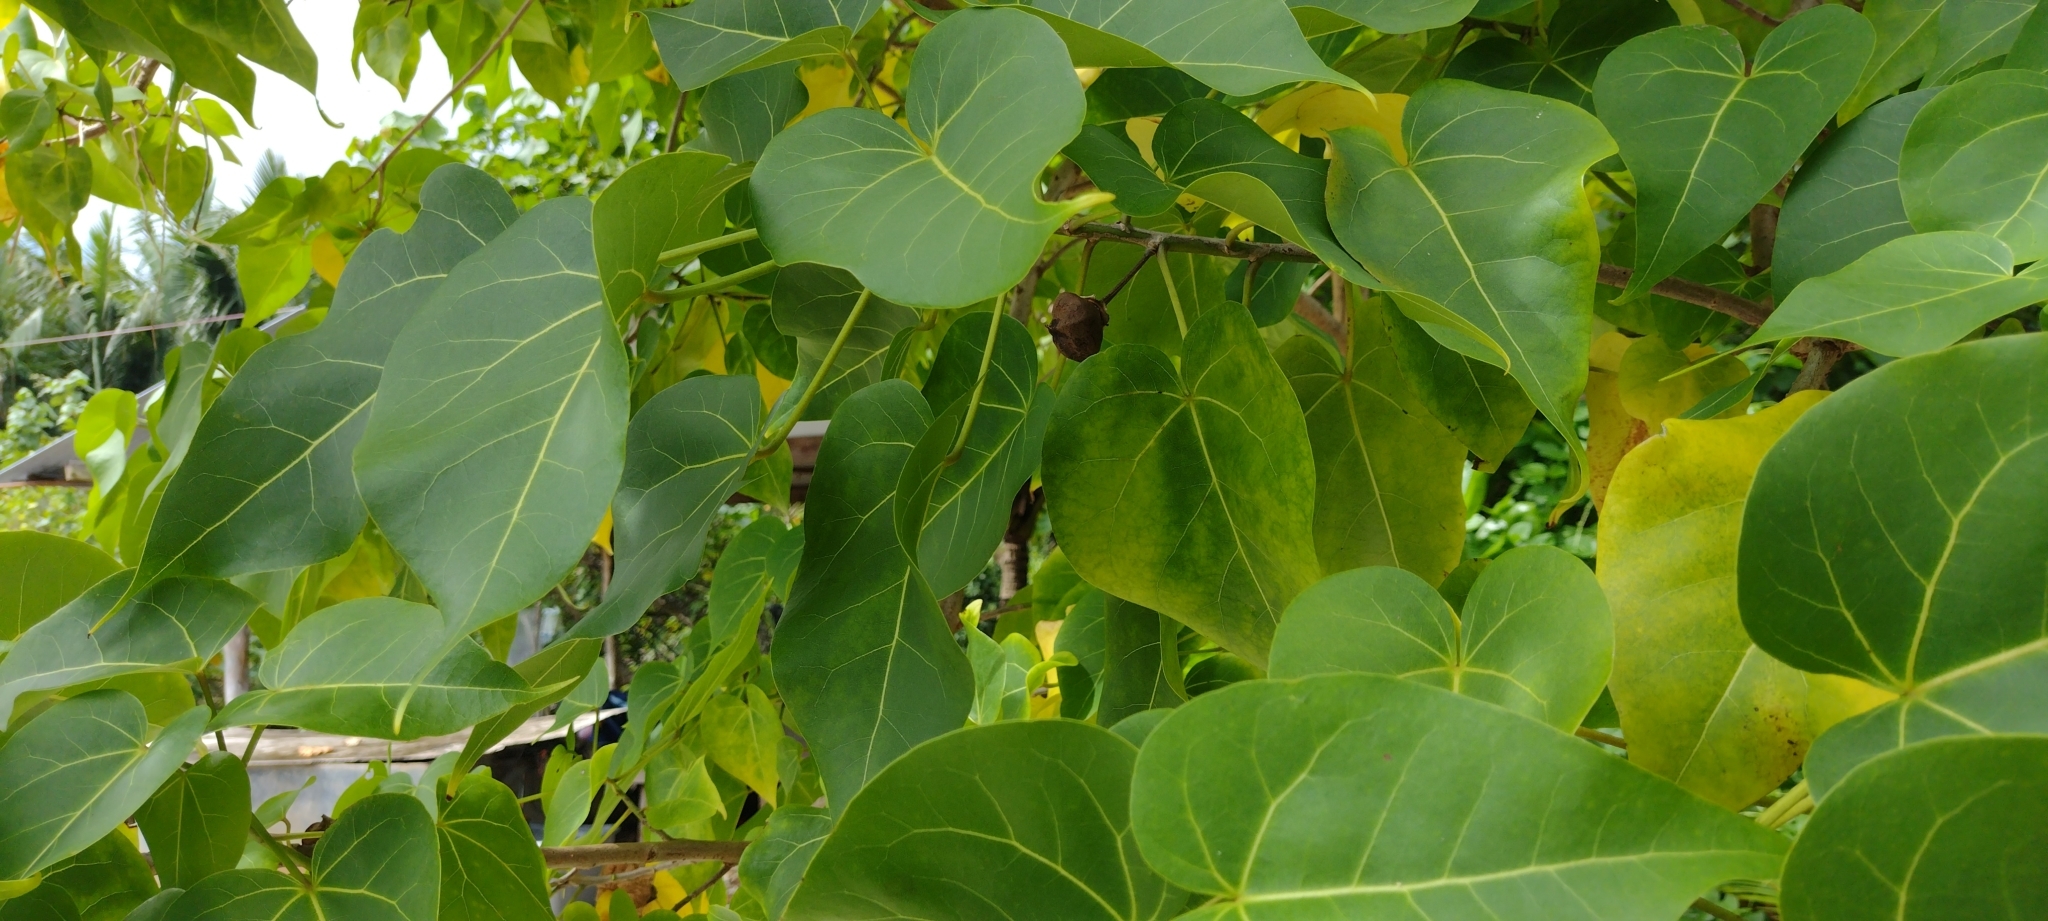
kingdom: Plantae
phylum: Tracheophyta
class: Magnoliopsida
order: Malvales
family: Malvaceae
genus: Thespesia
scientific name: Thespesia populnea
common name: Seaside mahoe
